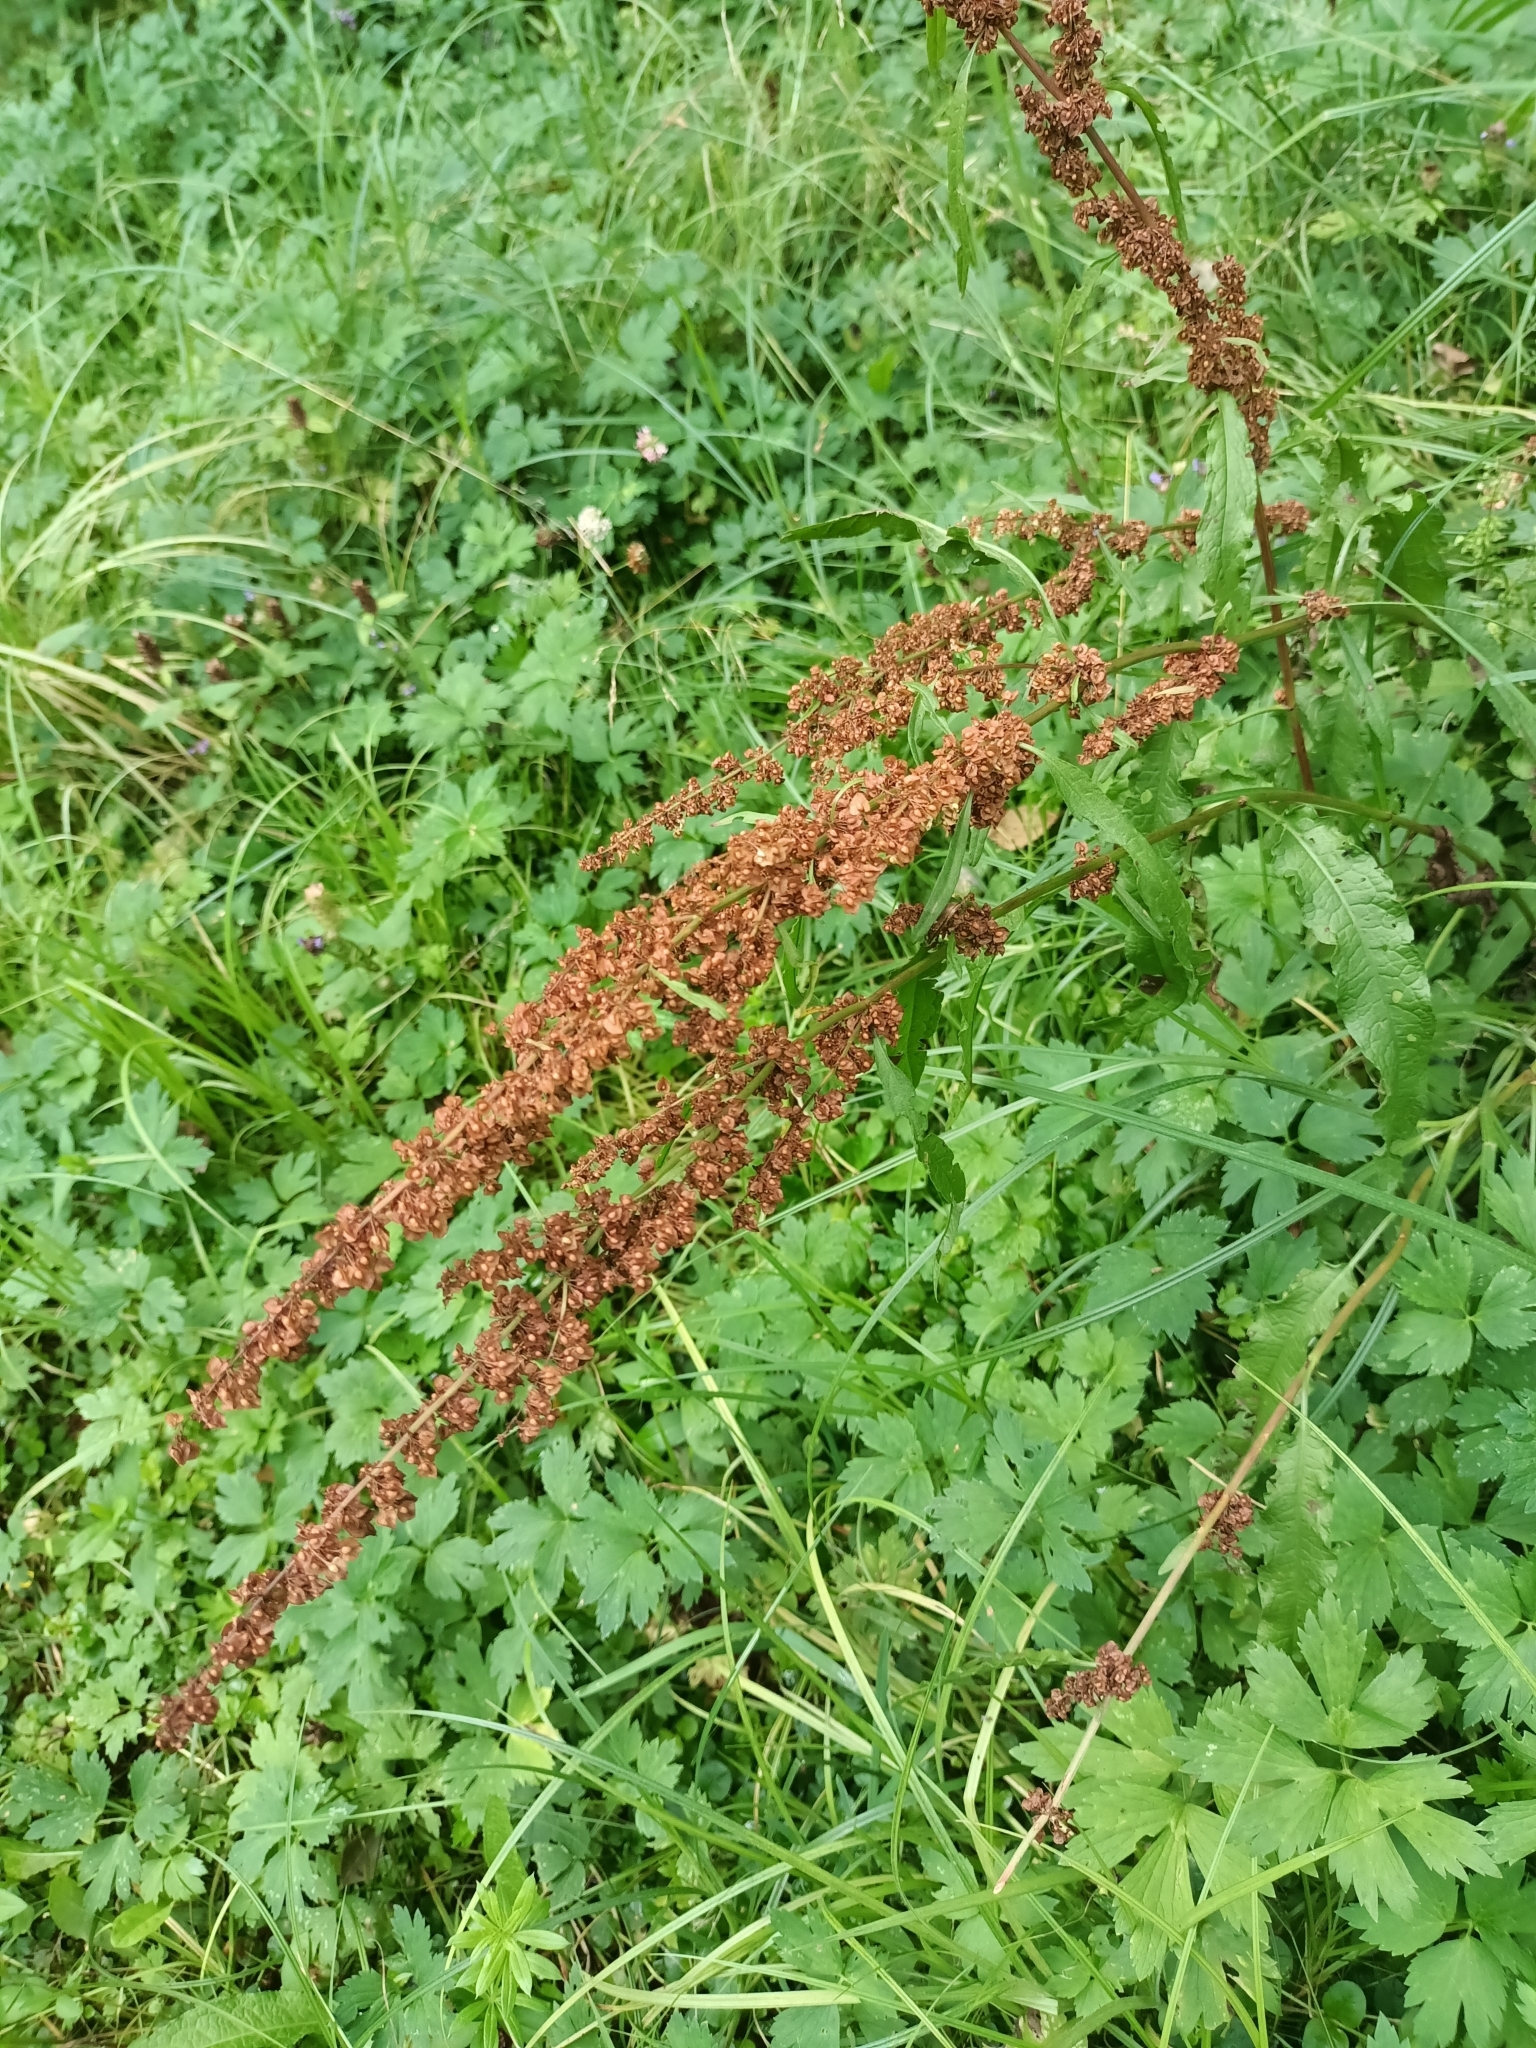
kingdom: Plantae
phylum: Tracheophyta
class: Magnoliopsida
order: Caryophyllales
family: Polygonaceae
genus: Rumex
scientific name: Rumex crispus
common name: Curled dock
